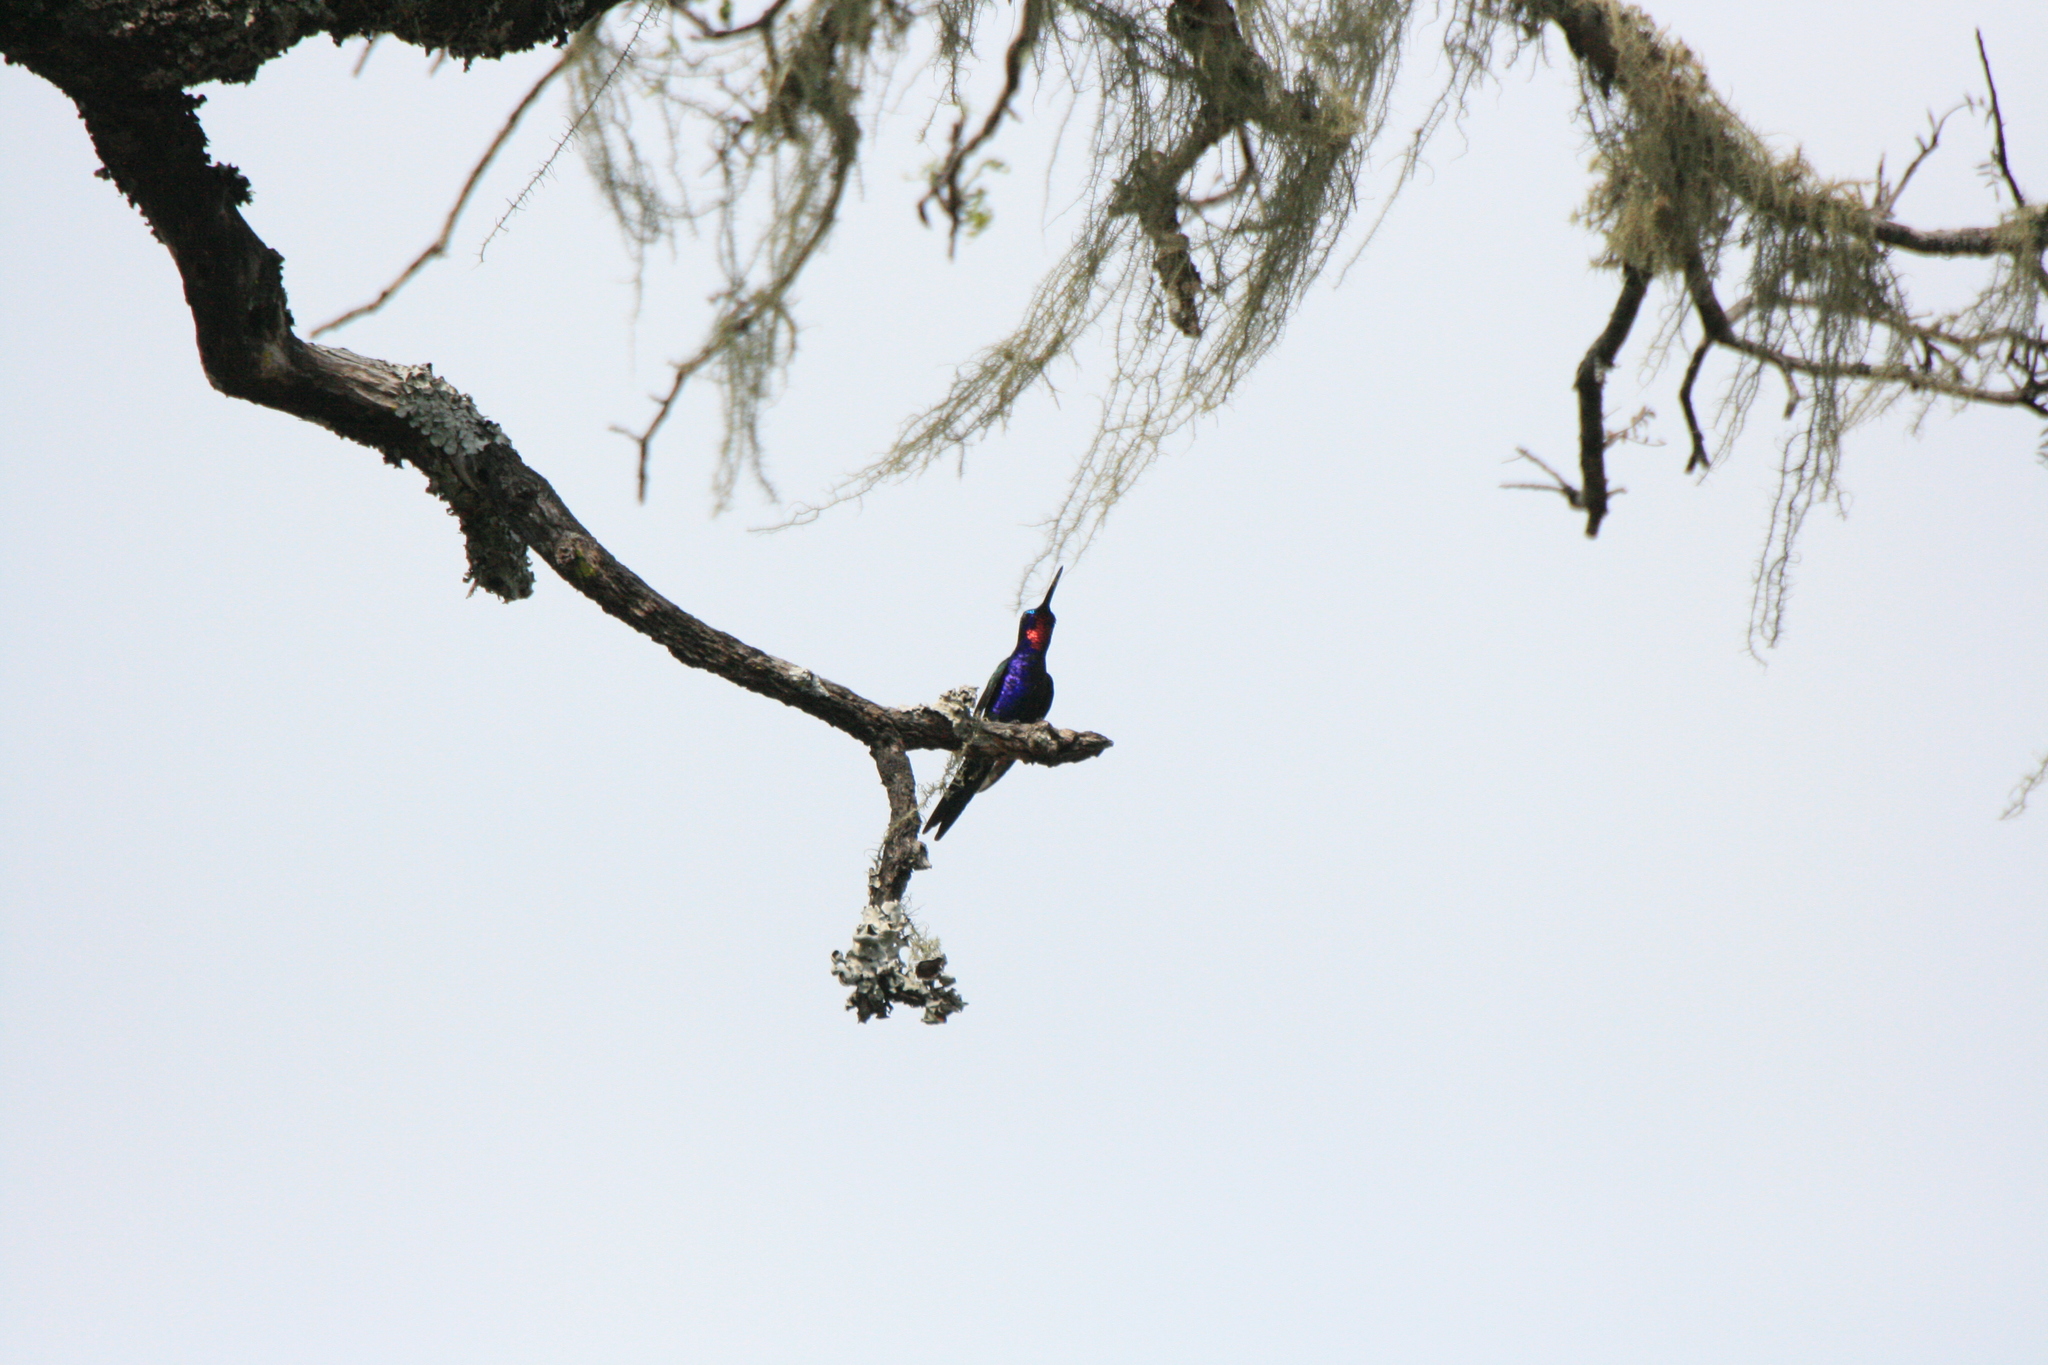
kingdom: Animalia
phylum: Chordata
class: Aves
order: Apodiformes
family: Trochilidae
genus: Heliomaster
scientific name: Heliomaster furcifer
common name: Blue-tufted starthroat
